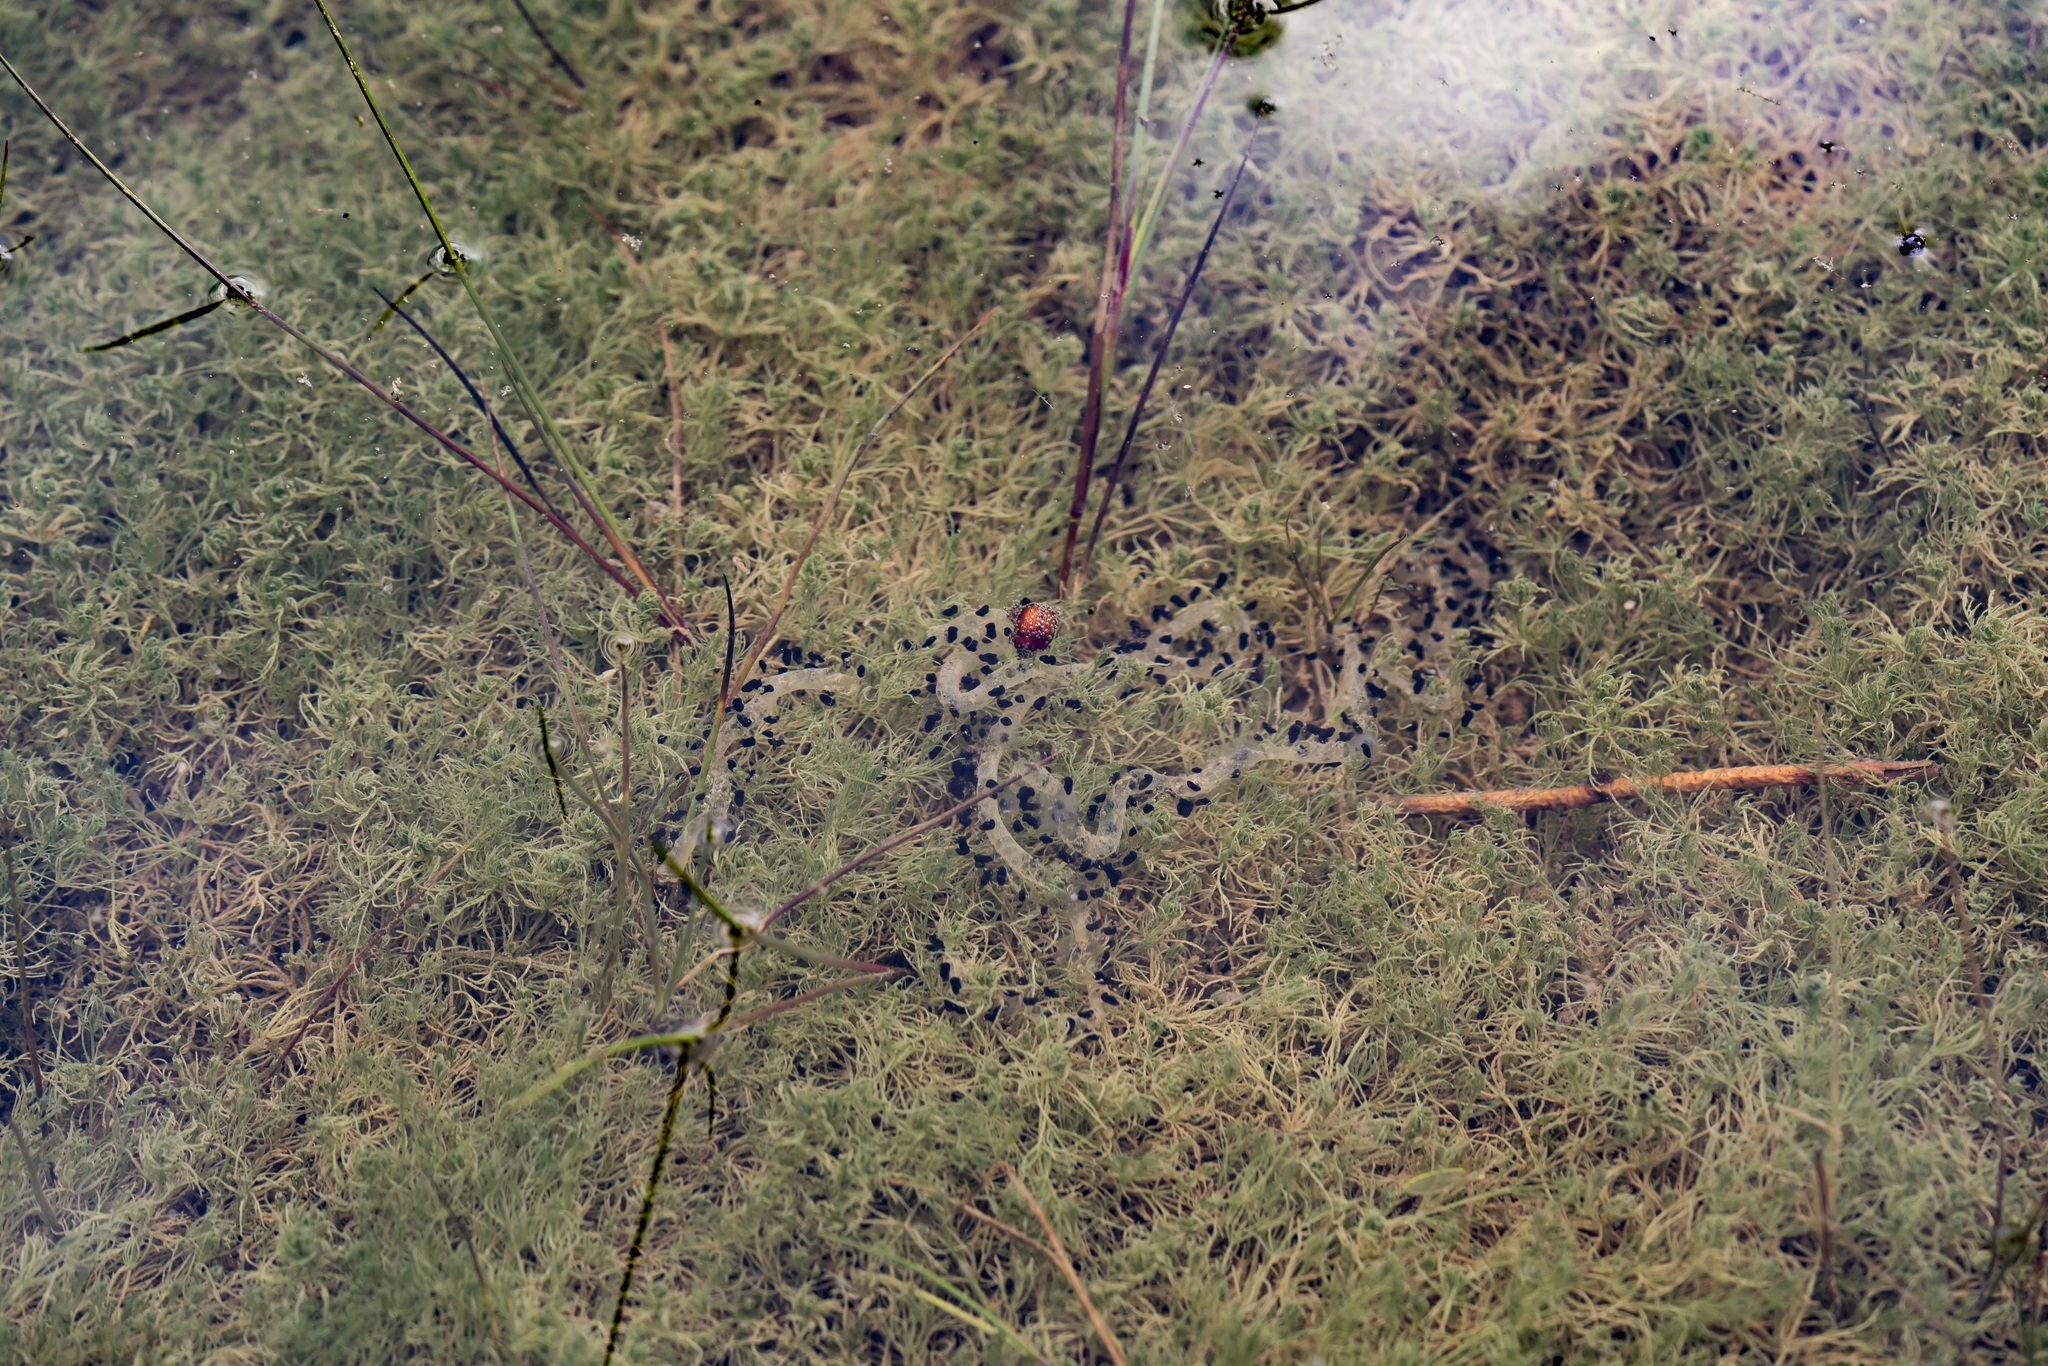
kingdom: Animalia
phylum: Chordata
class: Amphibia
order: Anura
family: Bufonidae
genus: Bufotes
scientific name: Bufotes viridis
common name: European green toad
